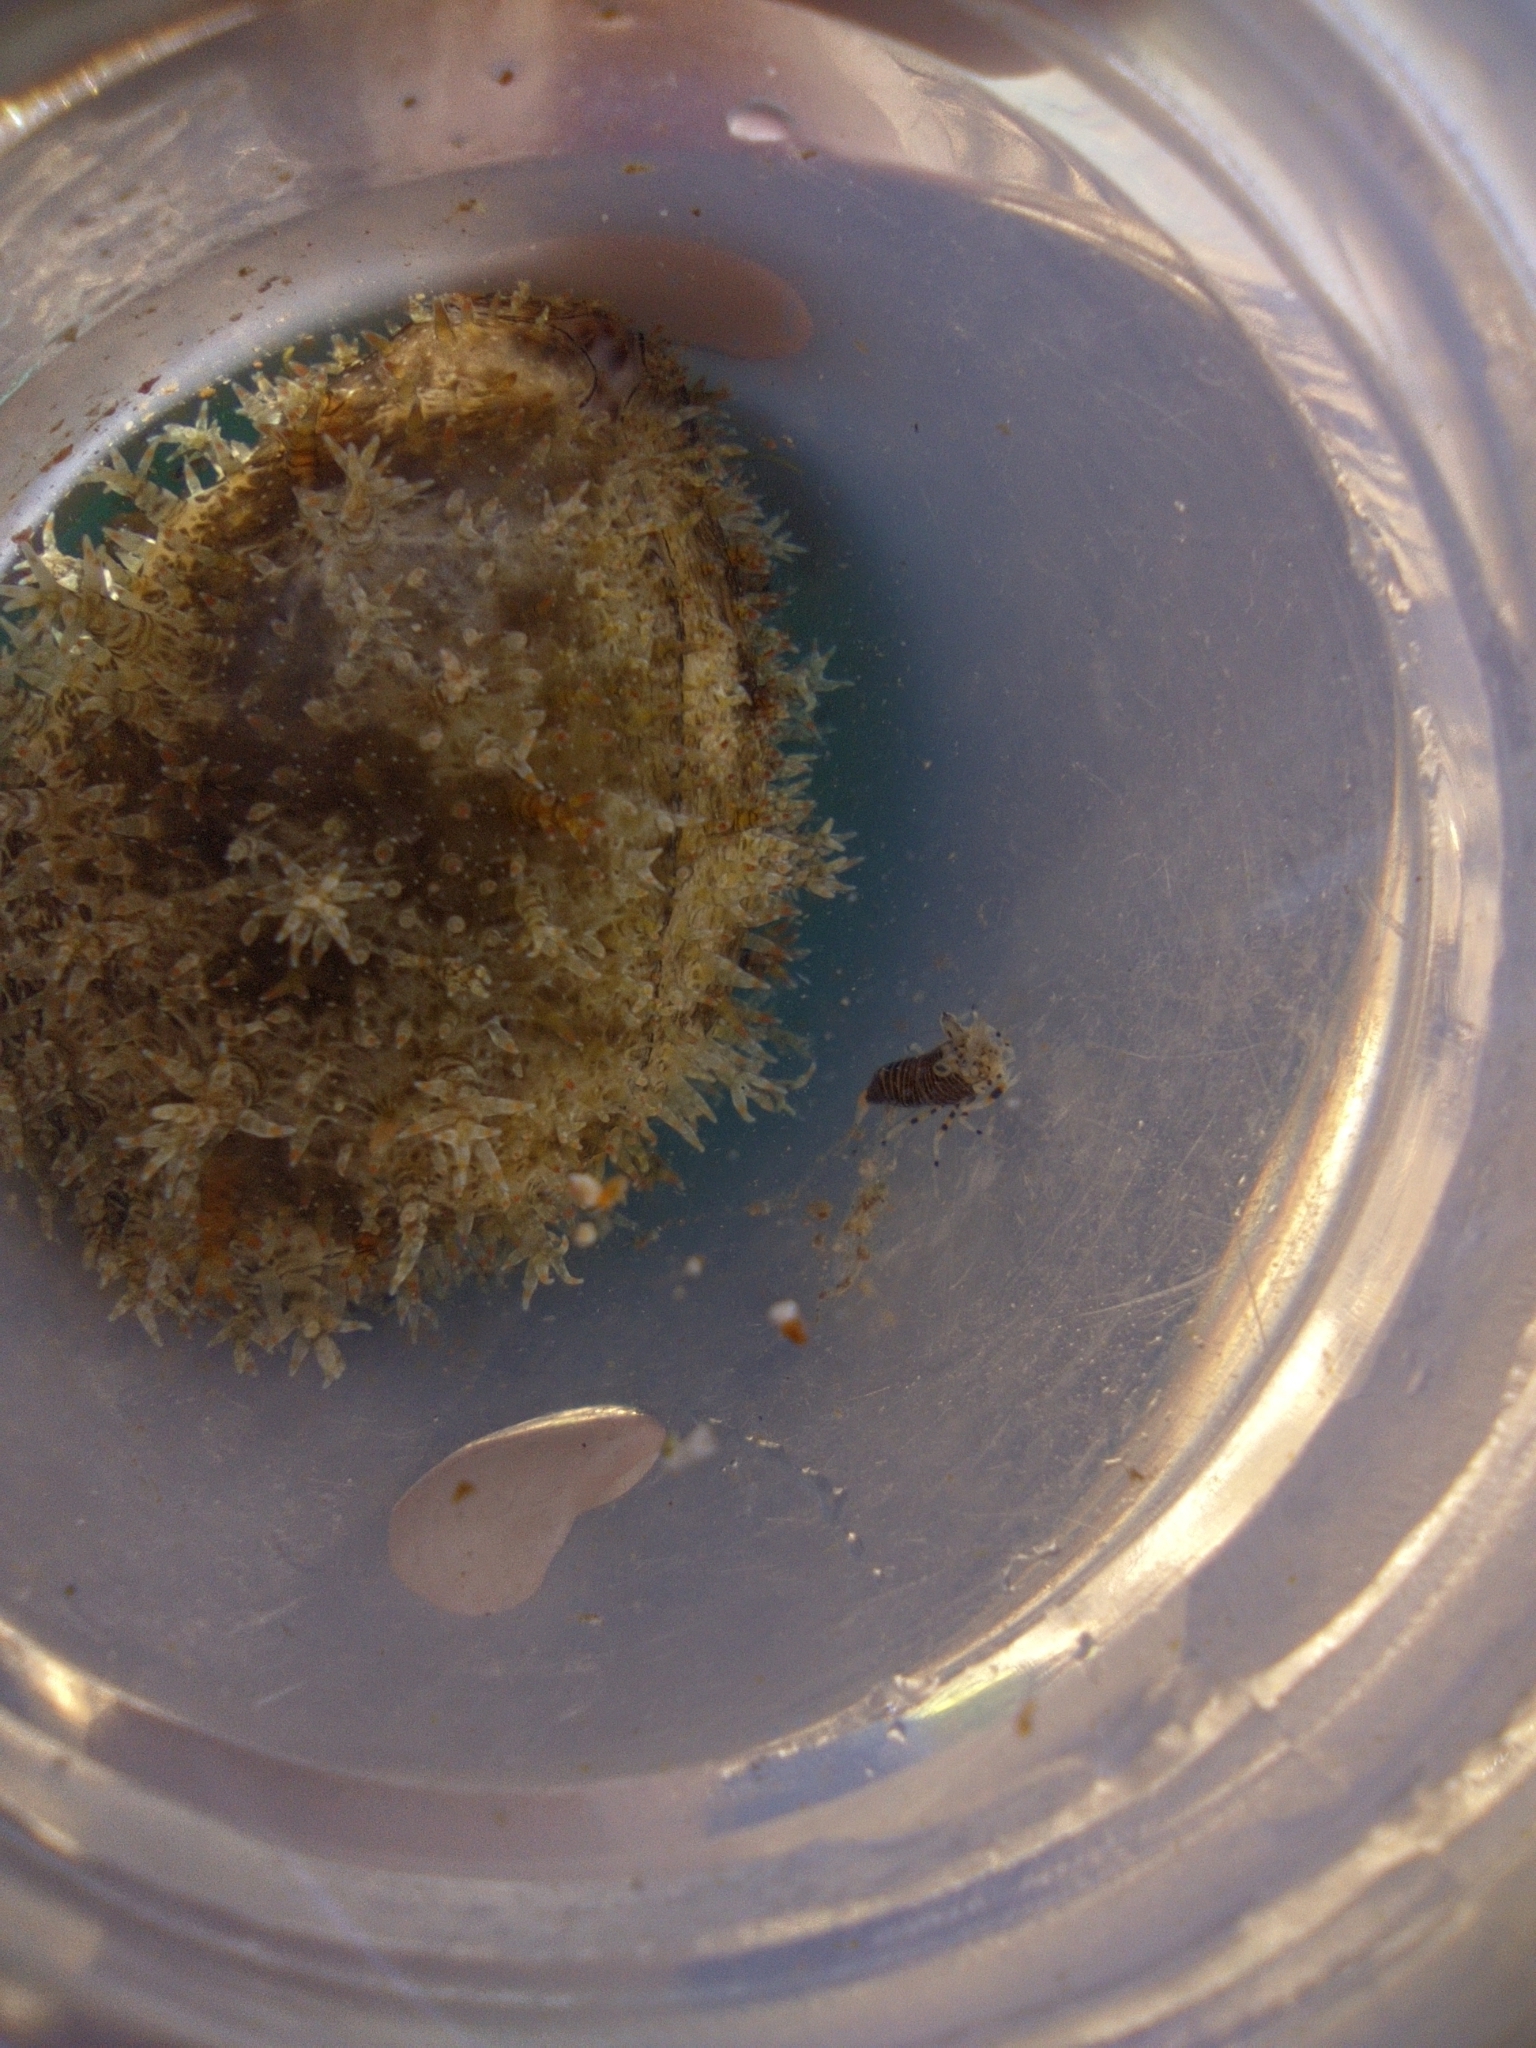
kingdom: Animalia
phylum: Arthropoda
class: Malacostraca
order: Decapoda
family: Palaemonidae
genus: Gnathophyllum
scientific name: Gnathophyllum americanum
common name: Bumblebee shrimp
